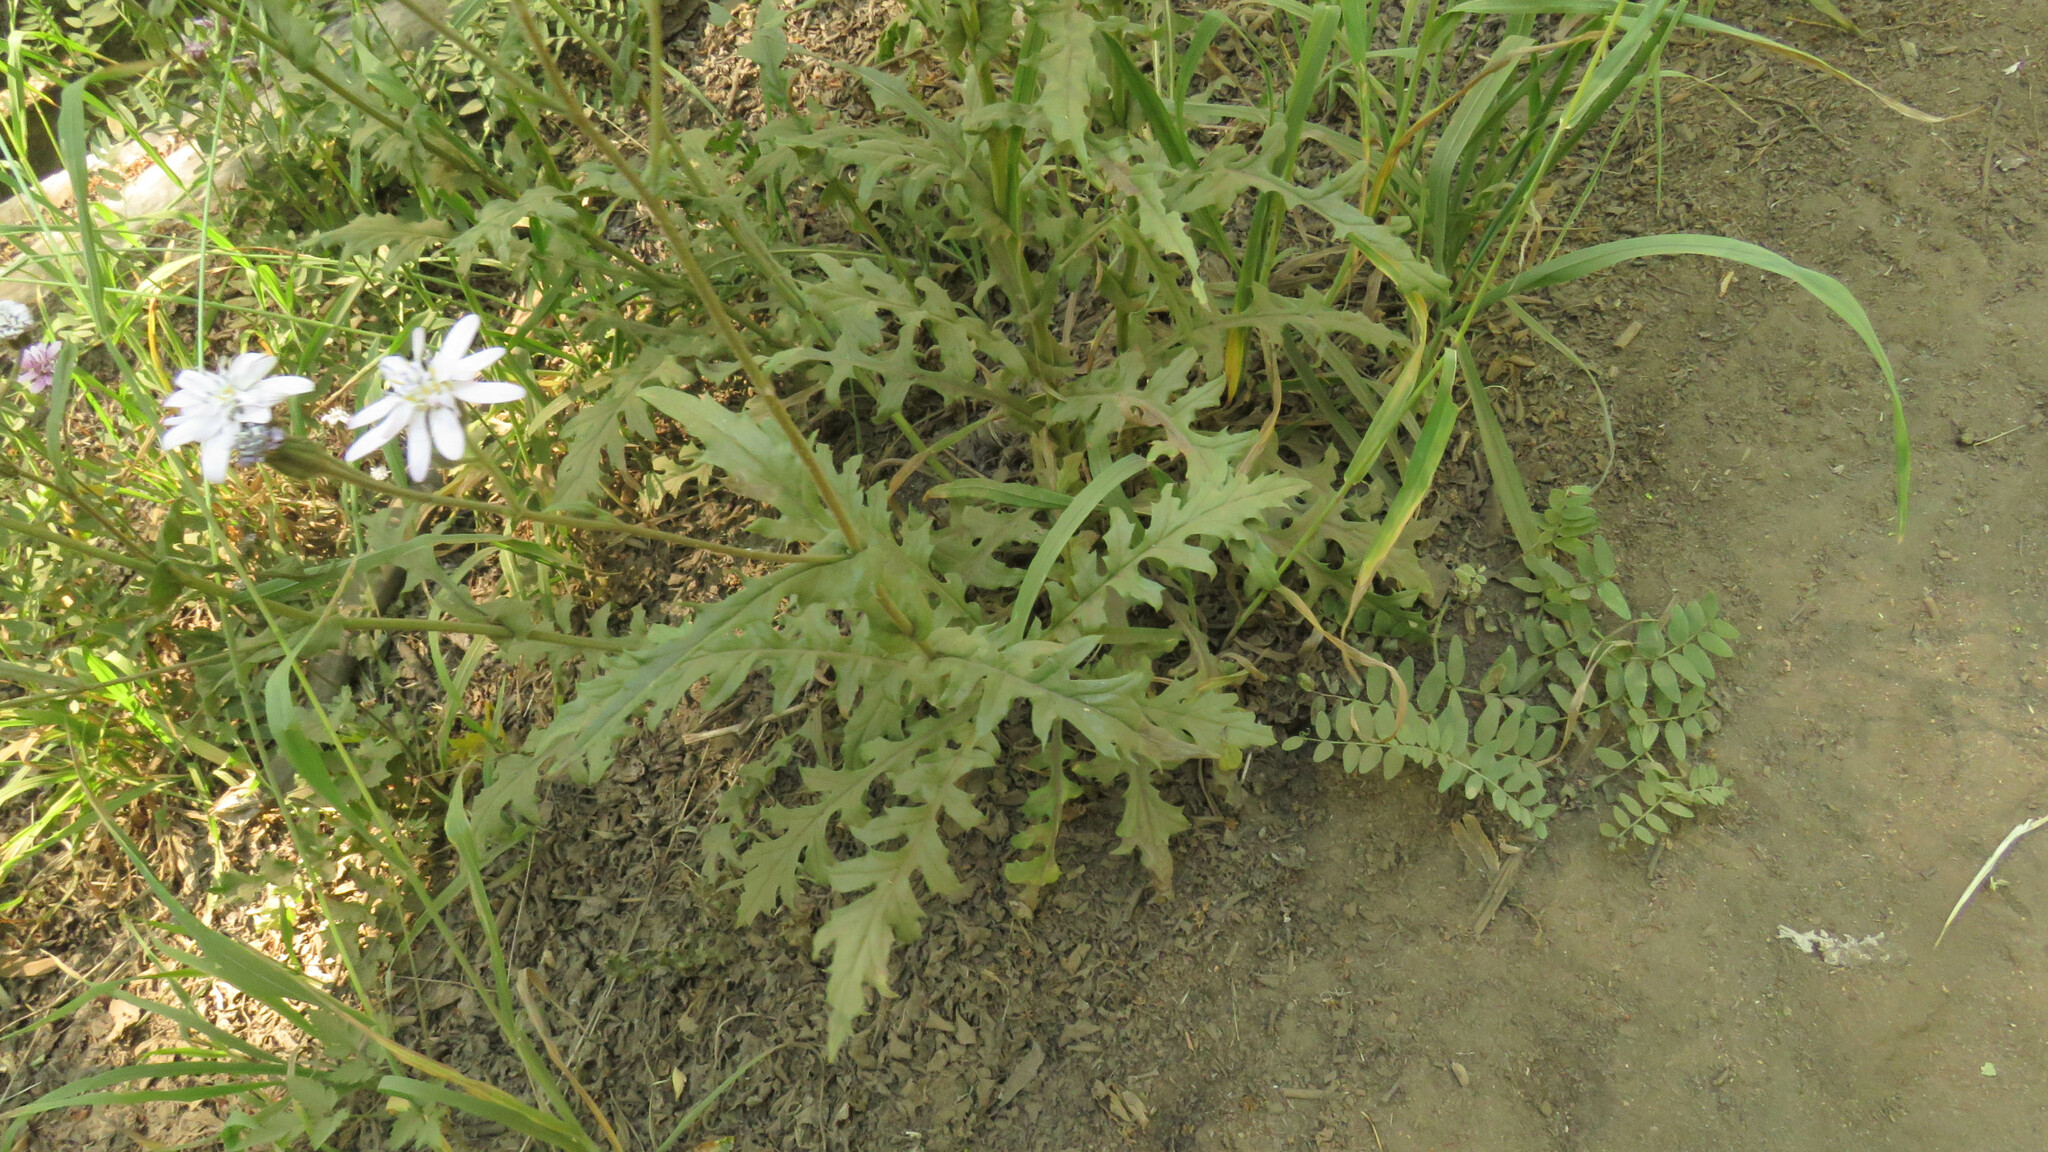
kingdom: Plantae
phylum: Tracheophyta
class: Magnoliopsida
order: Asterales
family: Asteraceae
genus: Leucheria
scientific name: Leucheria glacialis
